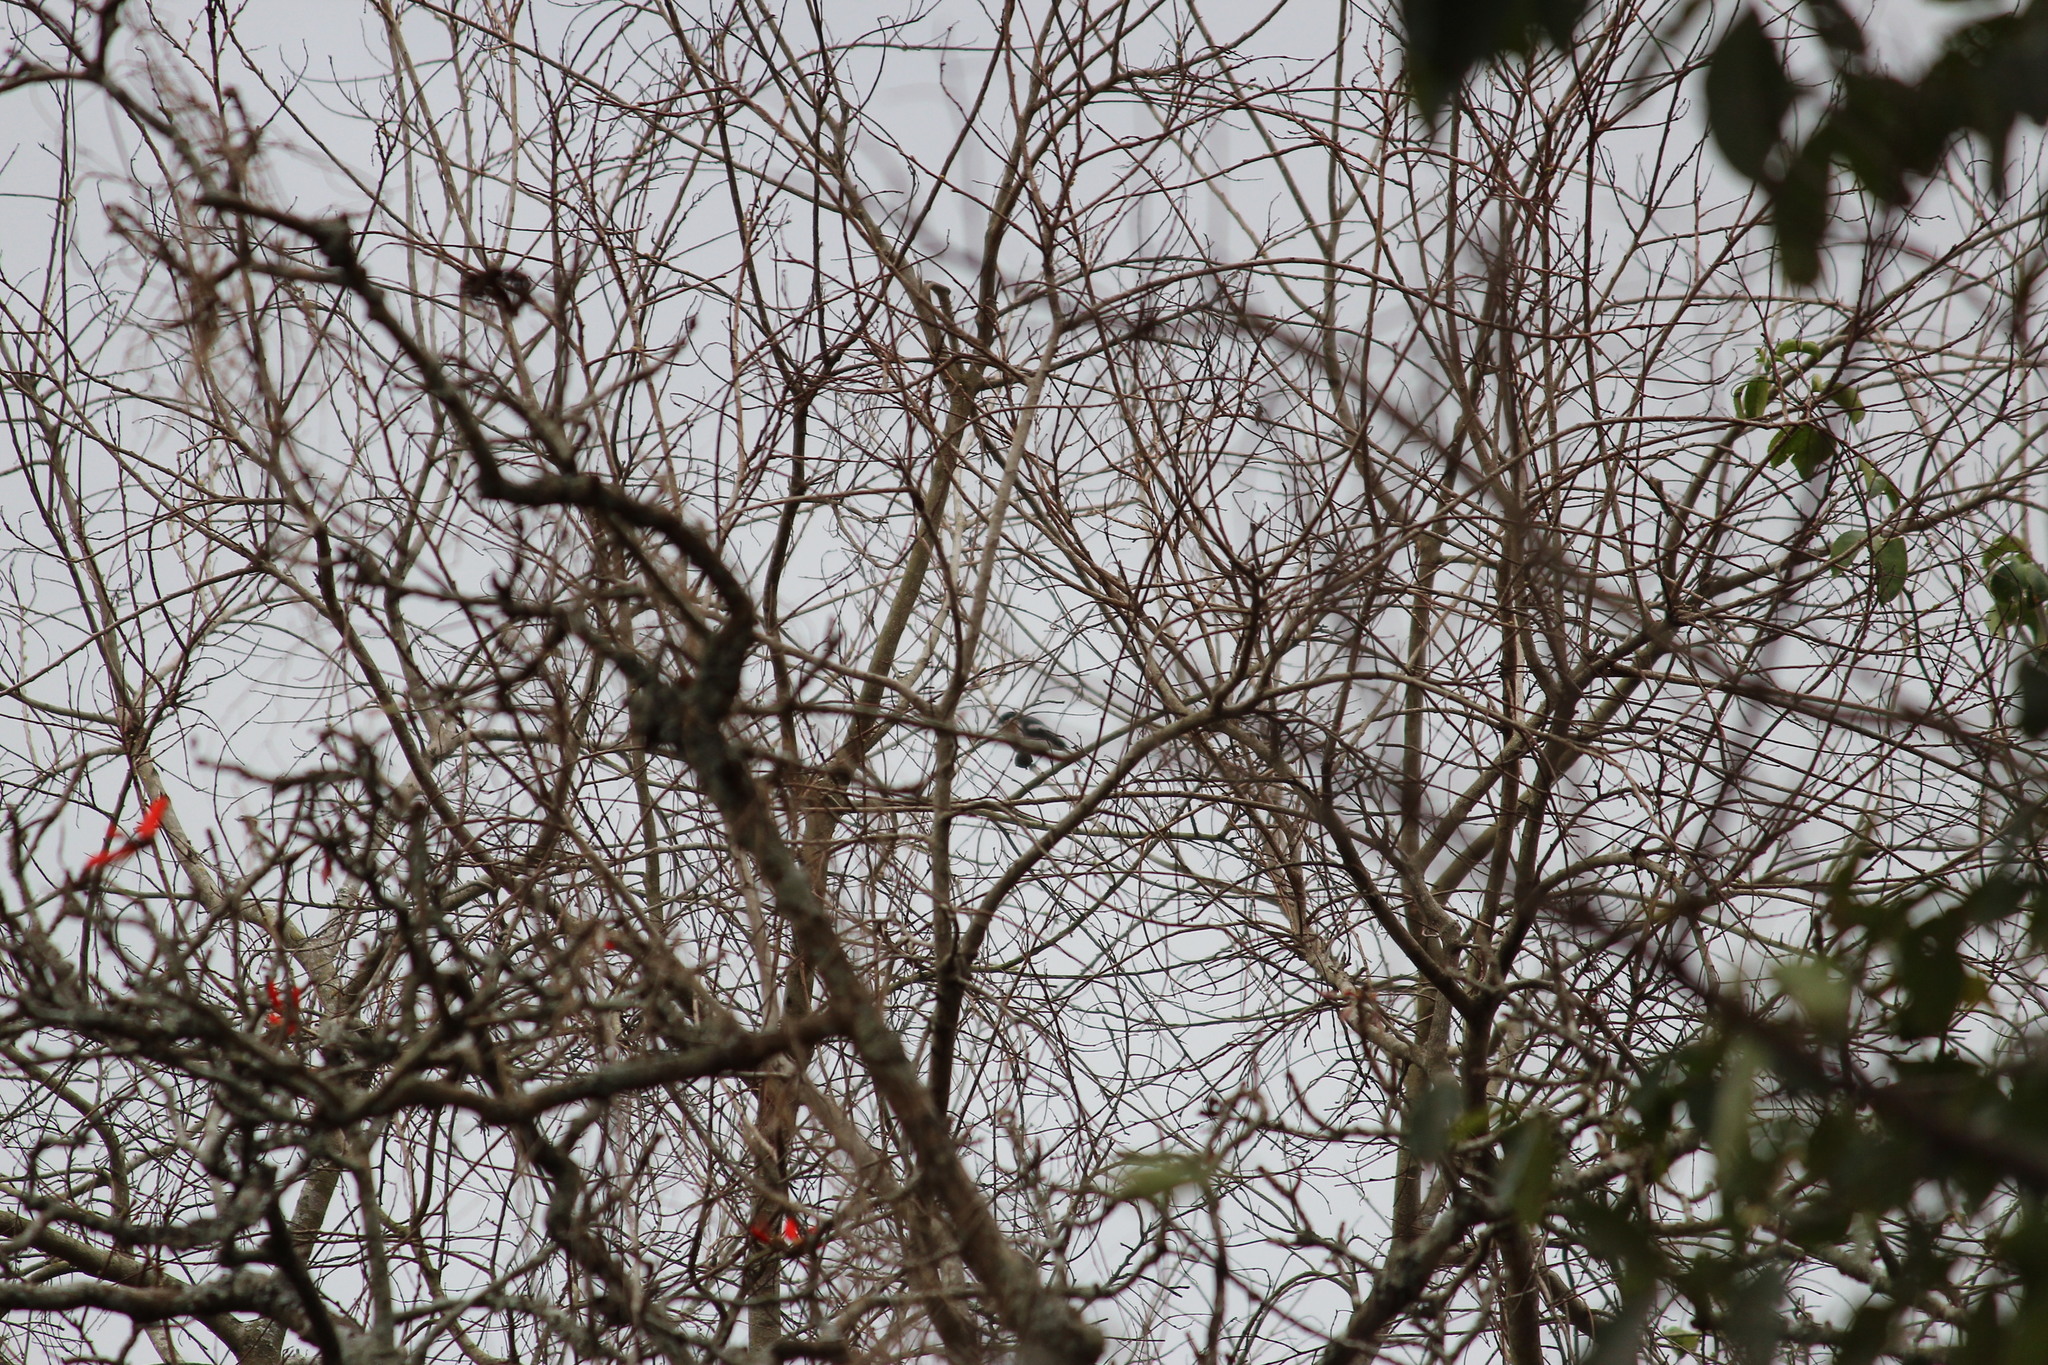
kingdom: Animalia
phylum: Chordata
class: Aves
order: Passeriformes
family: Platysteiridae
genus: Batis
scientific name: Batis molitor
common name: Chinspot batis
